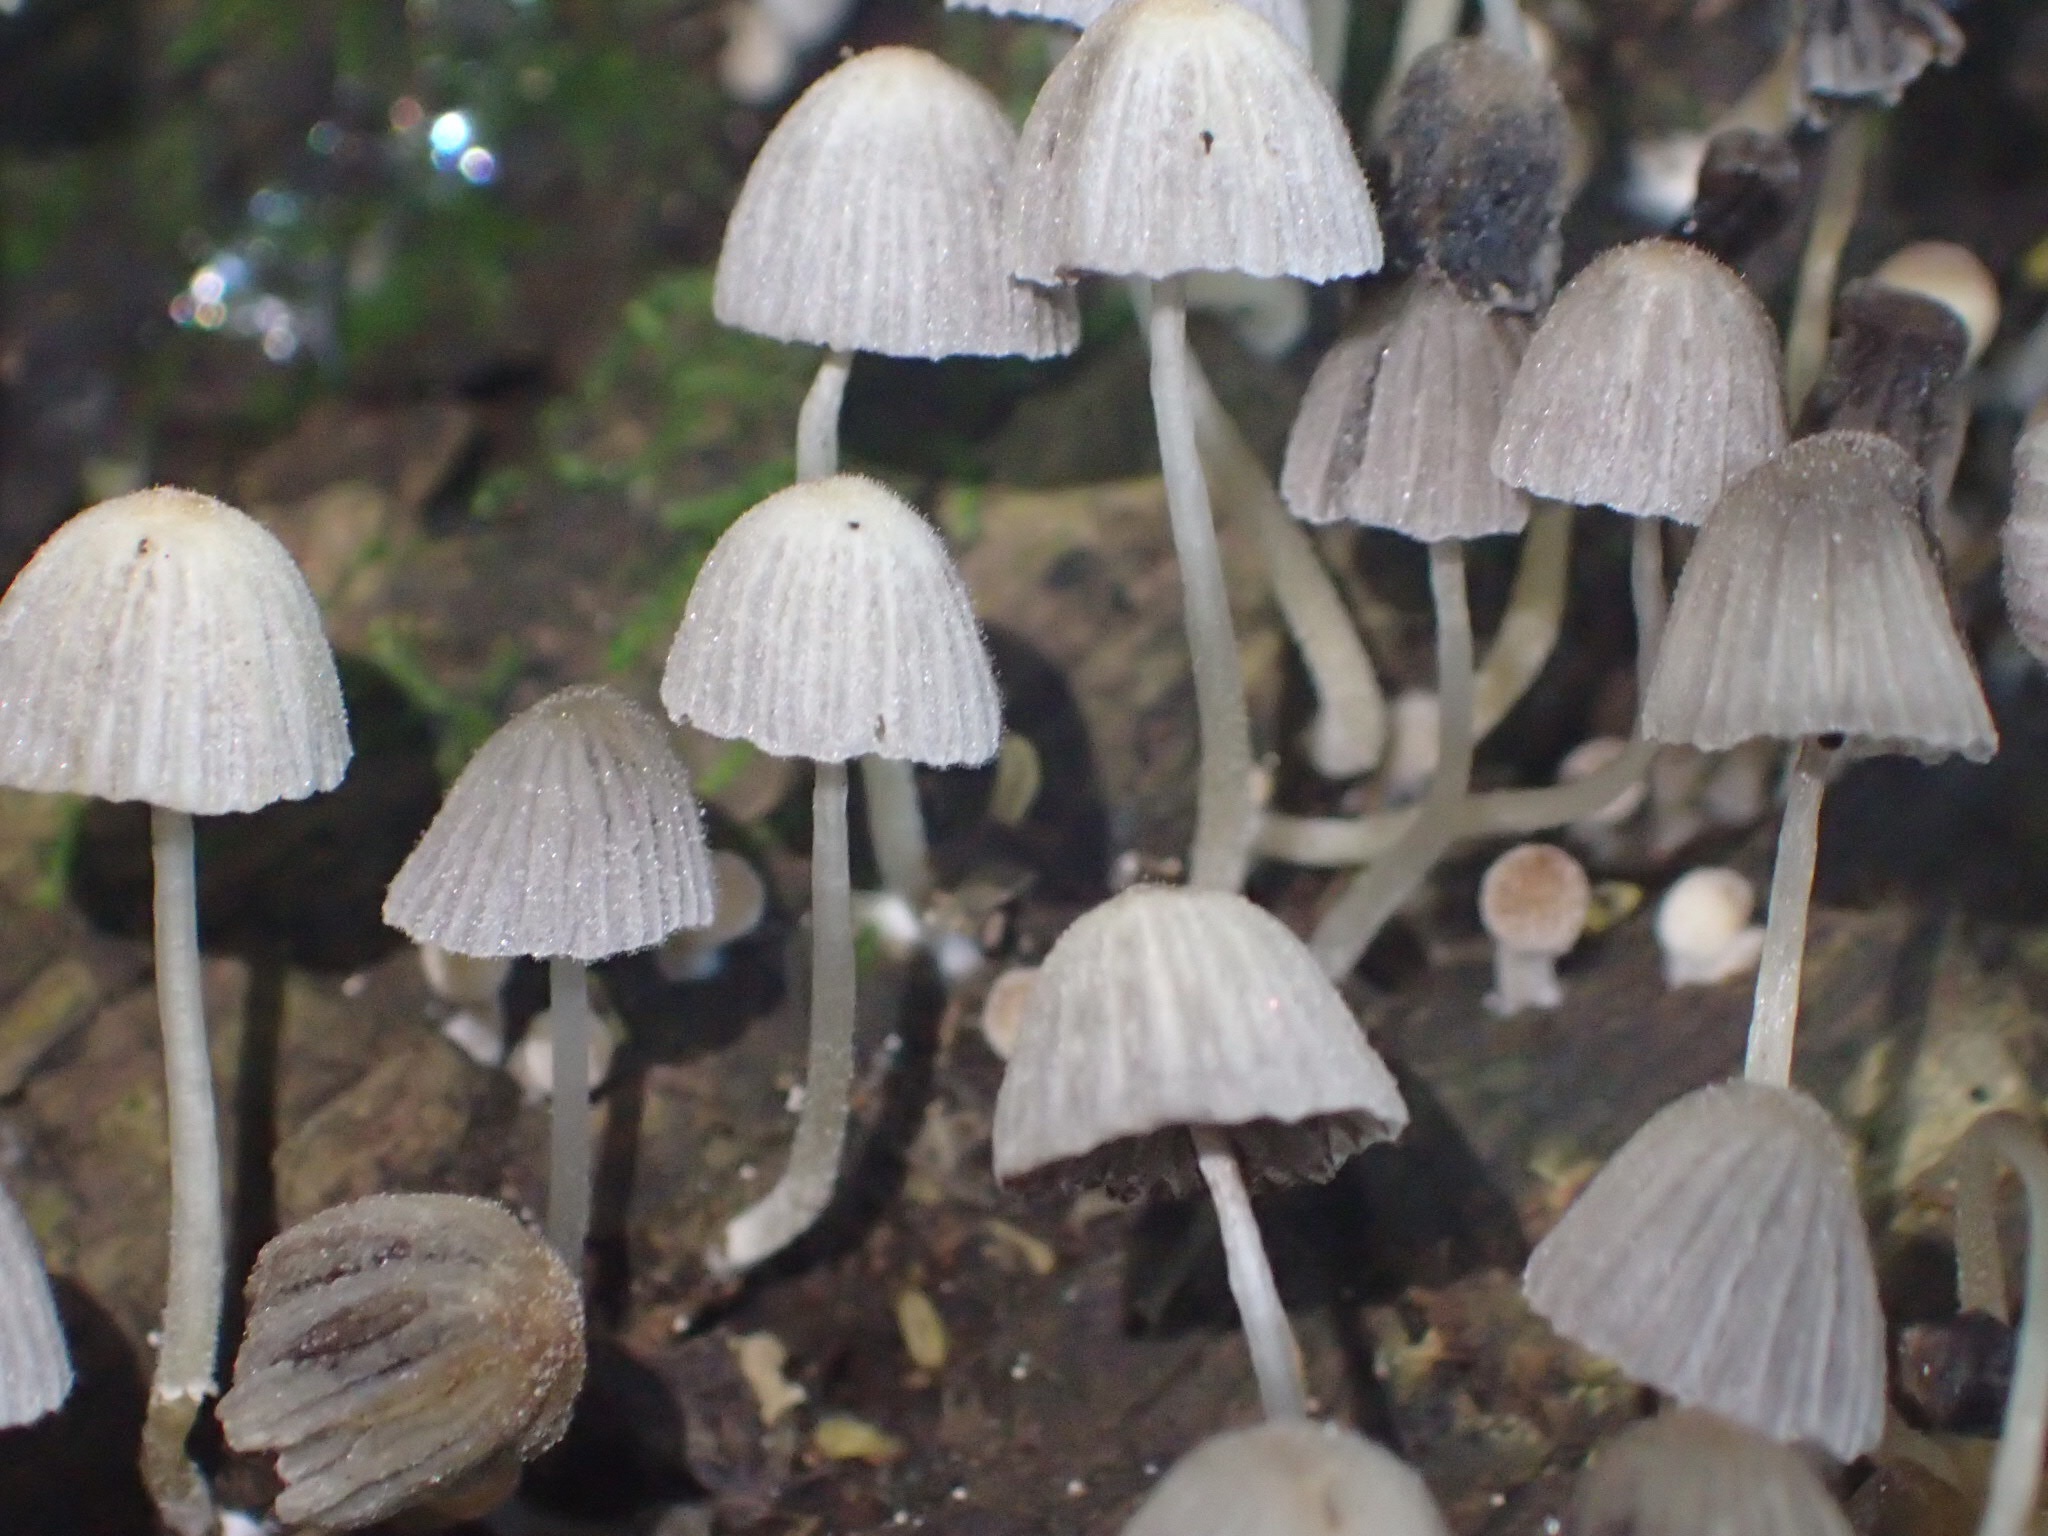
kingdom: Fungi
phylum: Basidiomycota
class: Agaricomycetes
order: Agaricales
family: Psathyrellaceae
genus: Coprinellus
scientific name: Coprinellus disseminatus
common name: Fairies' bonnets
